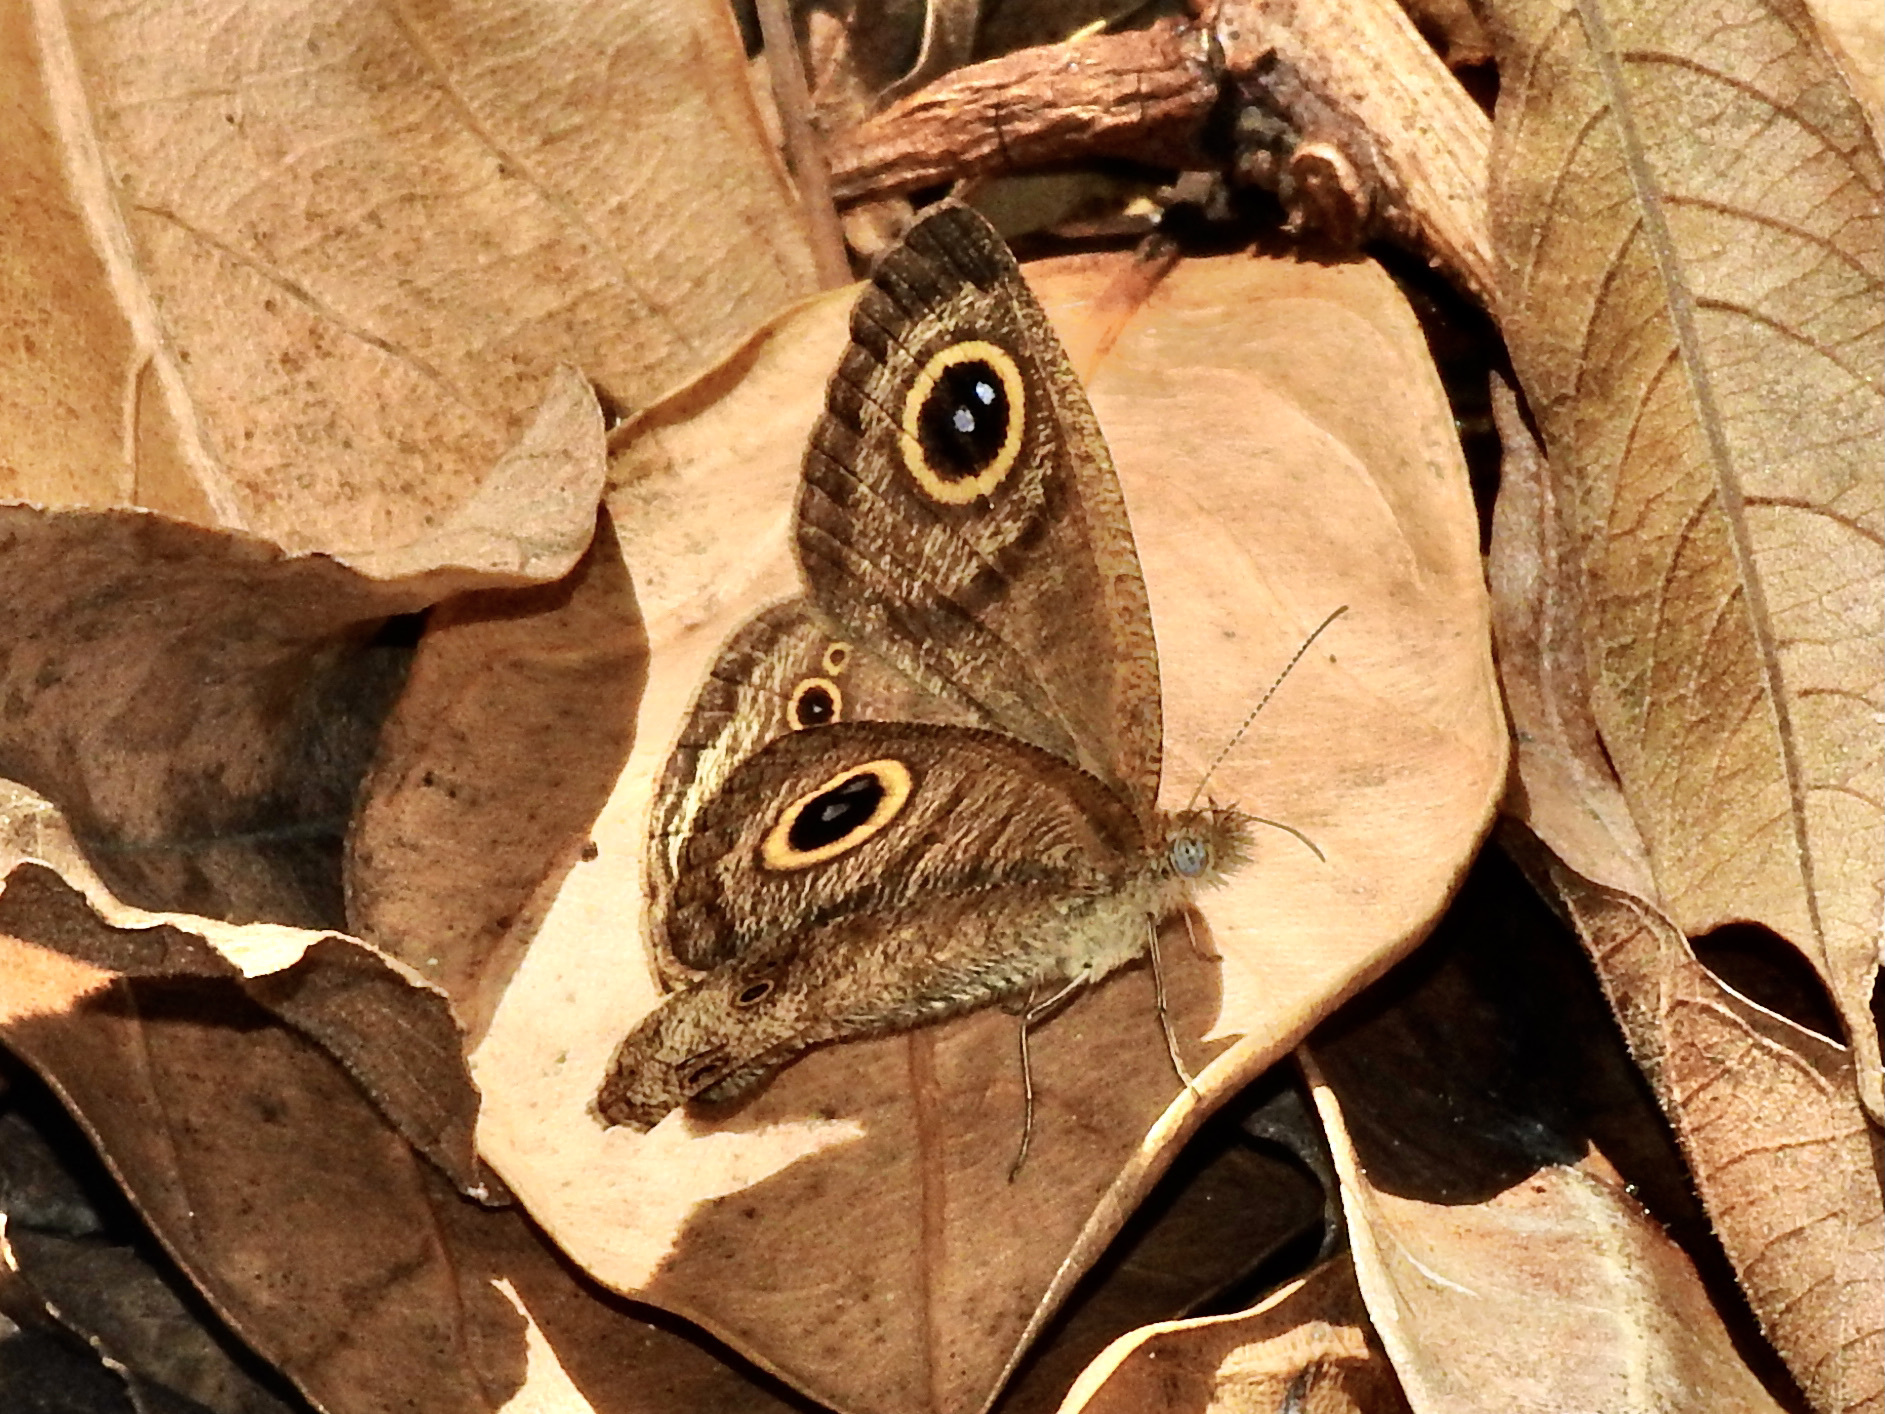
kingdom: Animalia
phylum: Arthropoda
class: Insecta
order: Lepidoptera
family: Nymphalidae
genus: Ypthima
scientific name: Ypthima baldus
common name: Common five-ring
